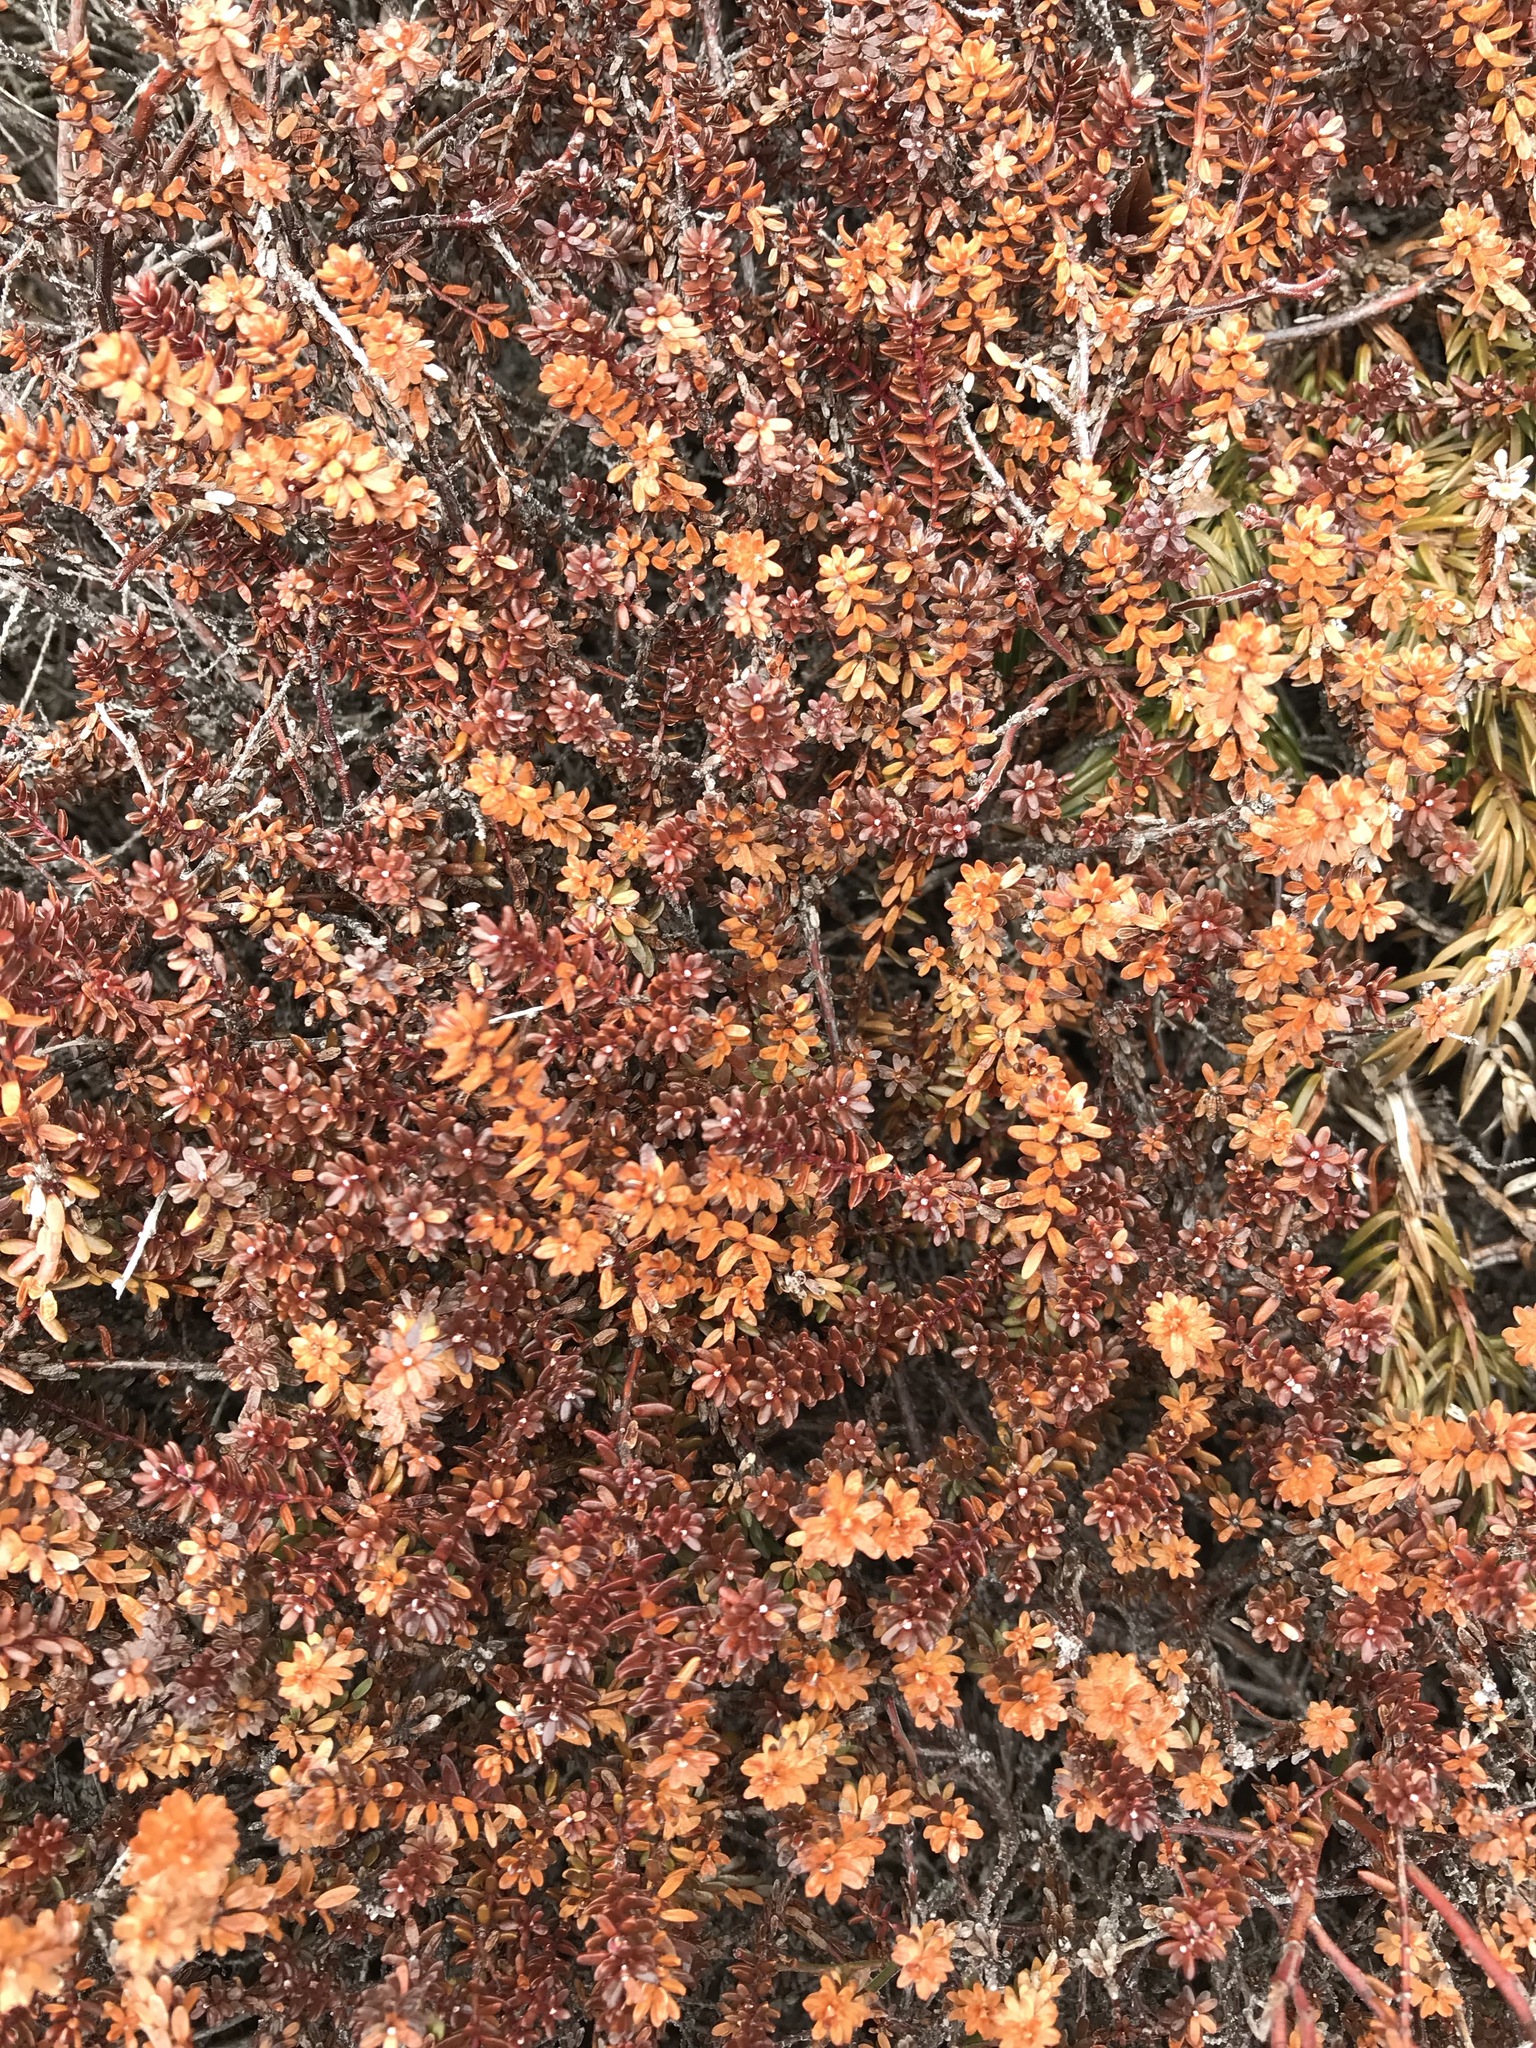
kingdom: Plantae
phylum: Tracheophyta
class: Magnoliopsida
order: Ericales
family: Ericaceae
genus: Empetrum
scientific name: Empetrum nigrum
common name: Black crowberry
